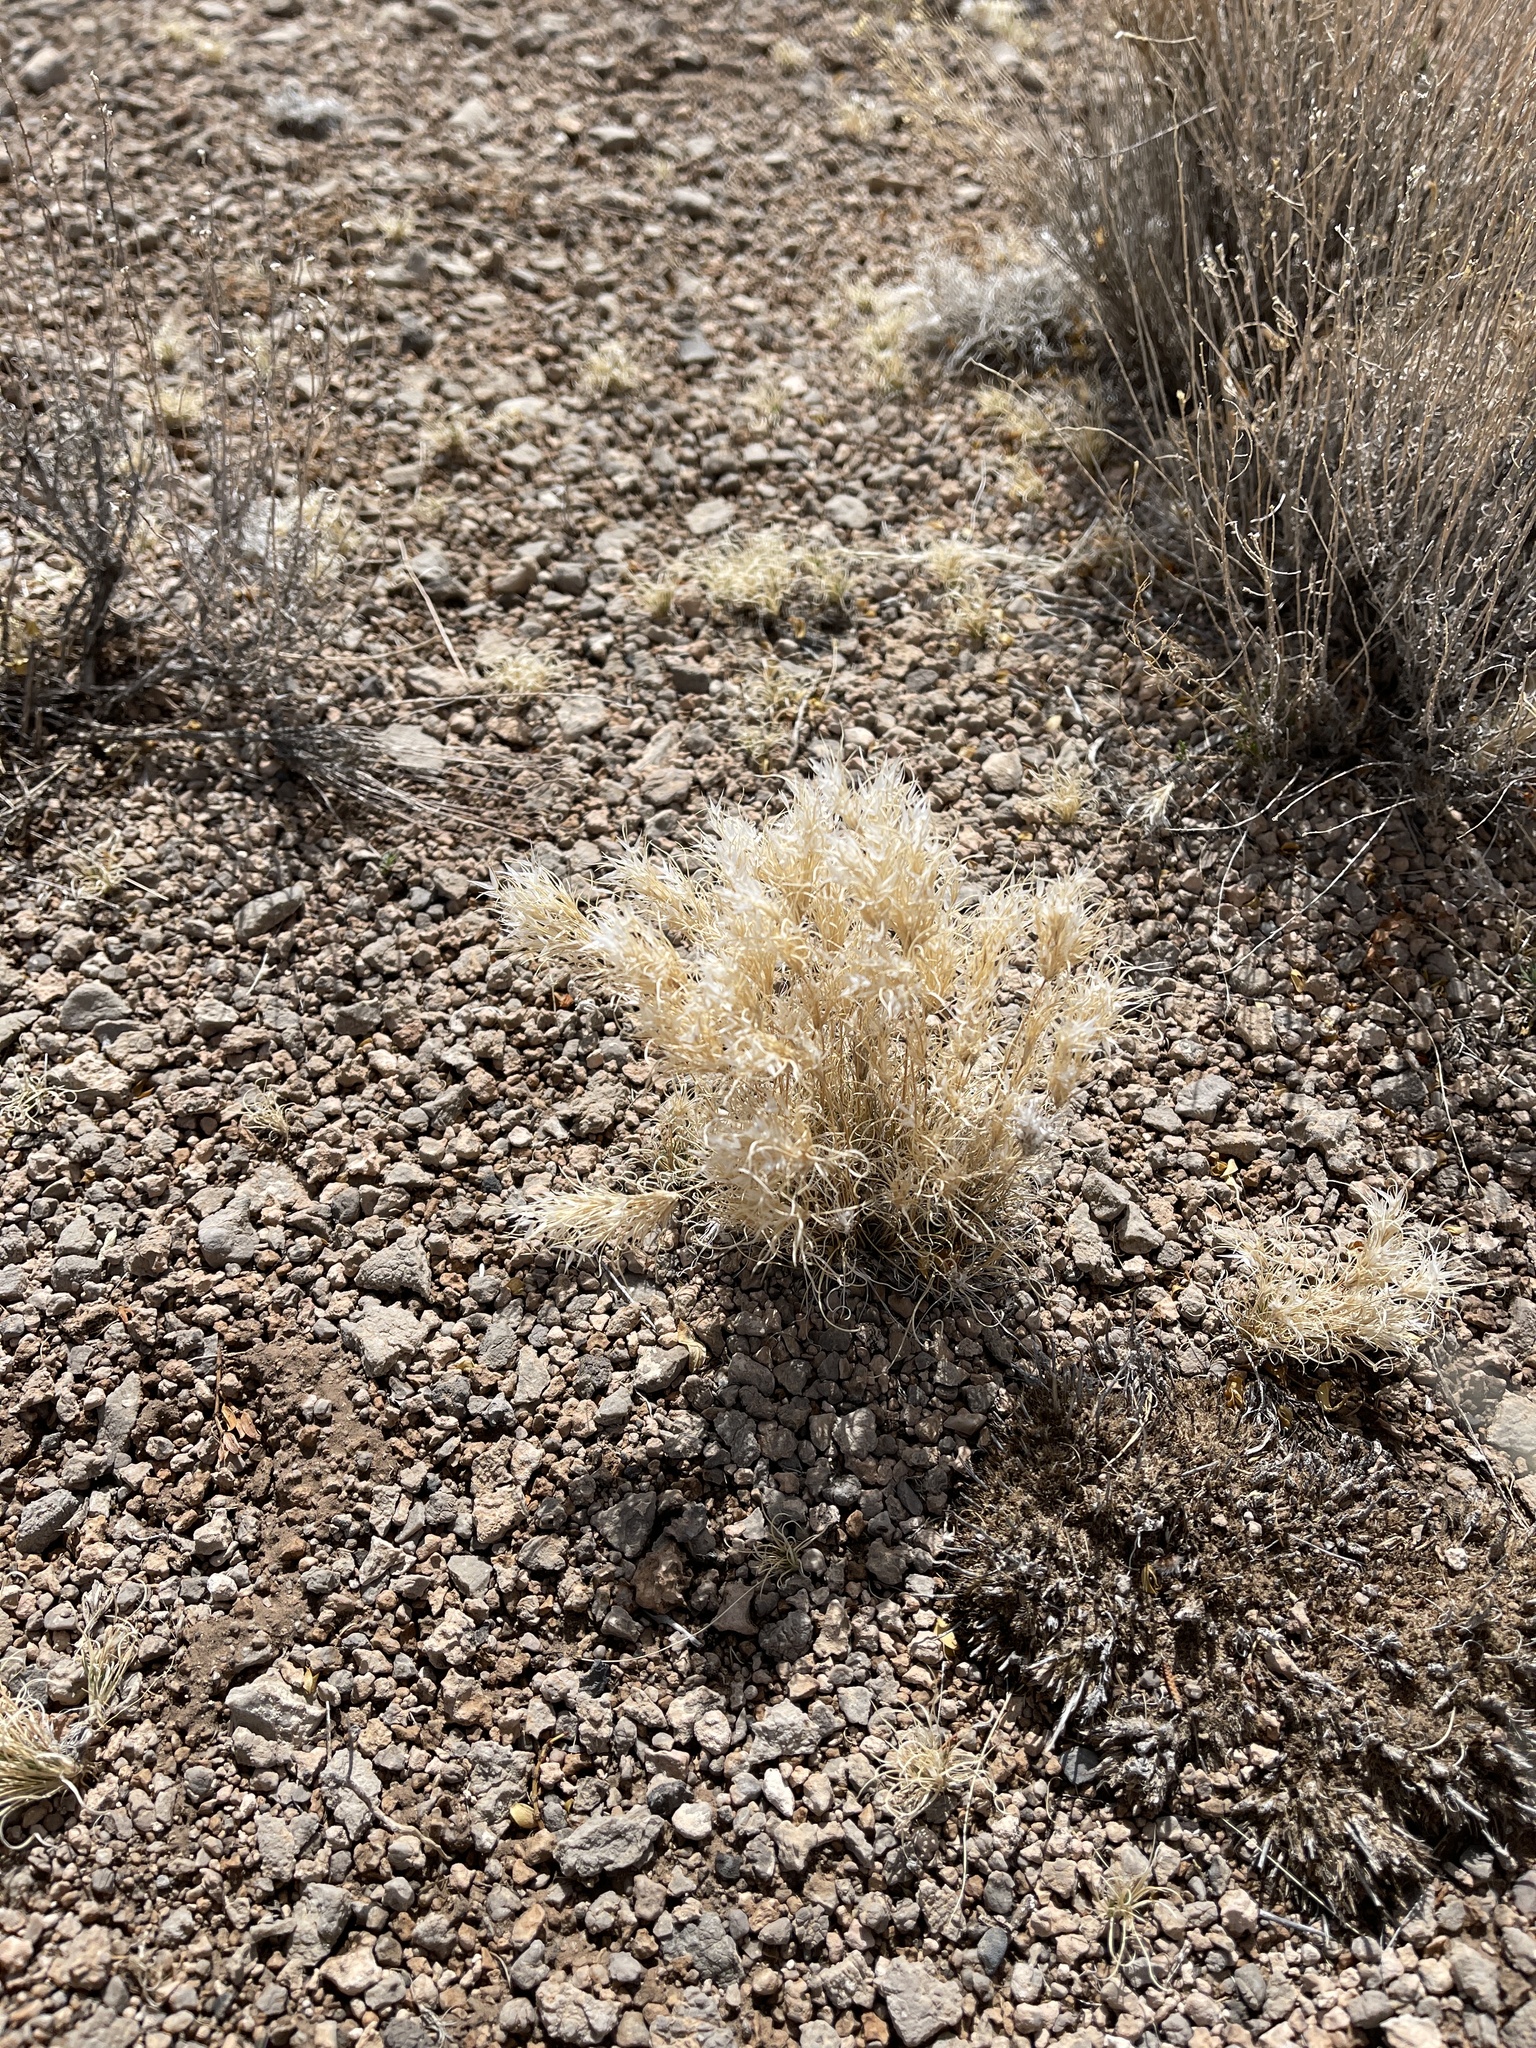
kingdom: Plantae
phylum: Tracheophyta
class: Liliopsida
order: Poales
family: Poaceae
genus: Dasyochloa
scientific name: Dasyochloa pulchella
